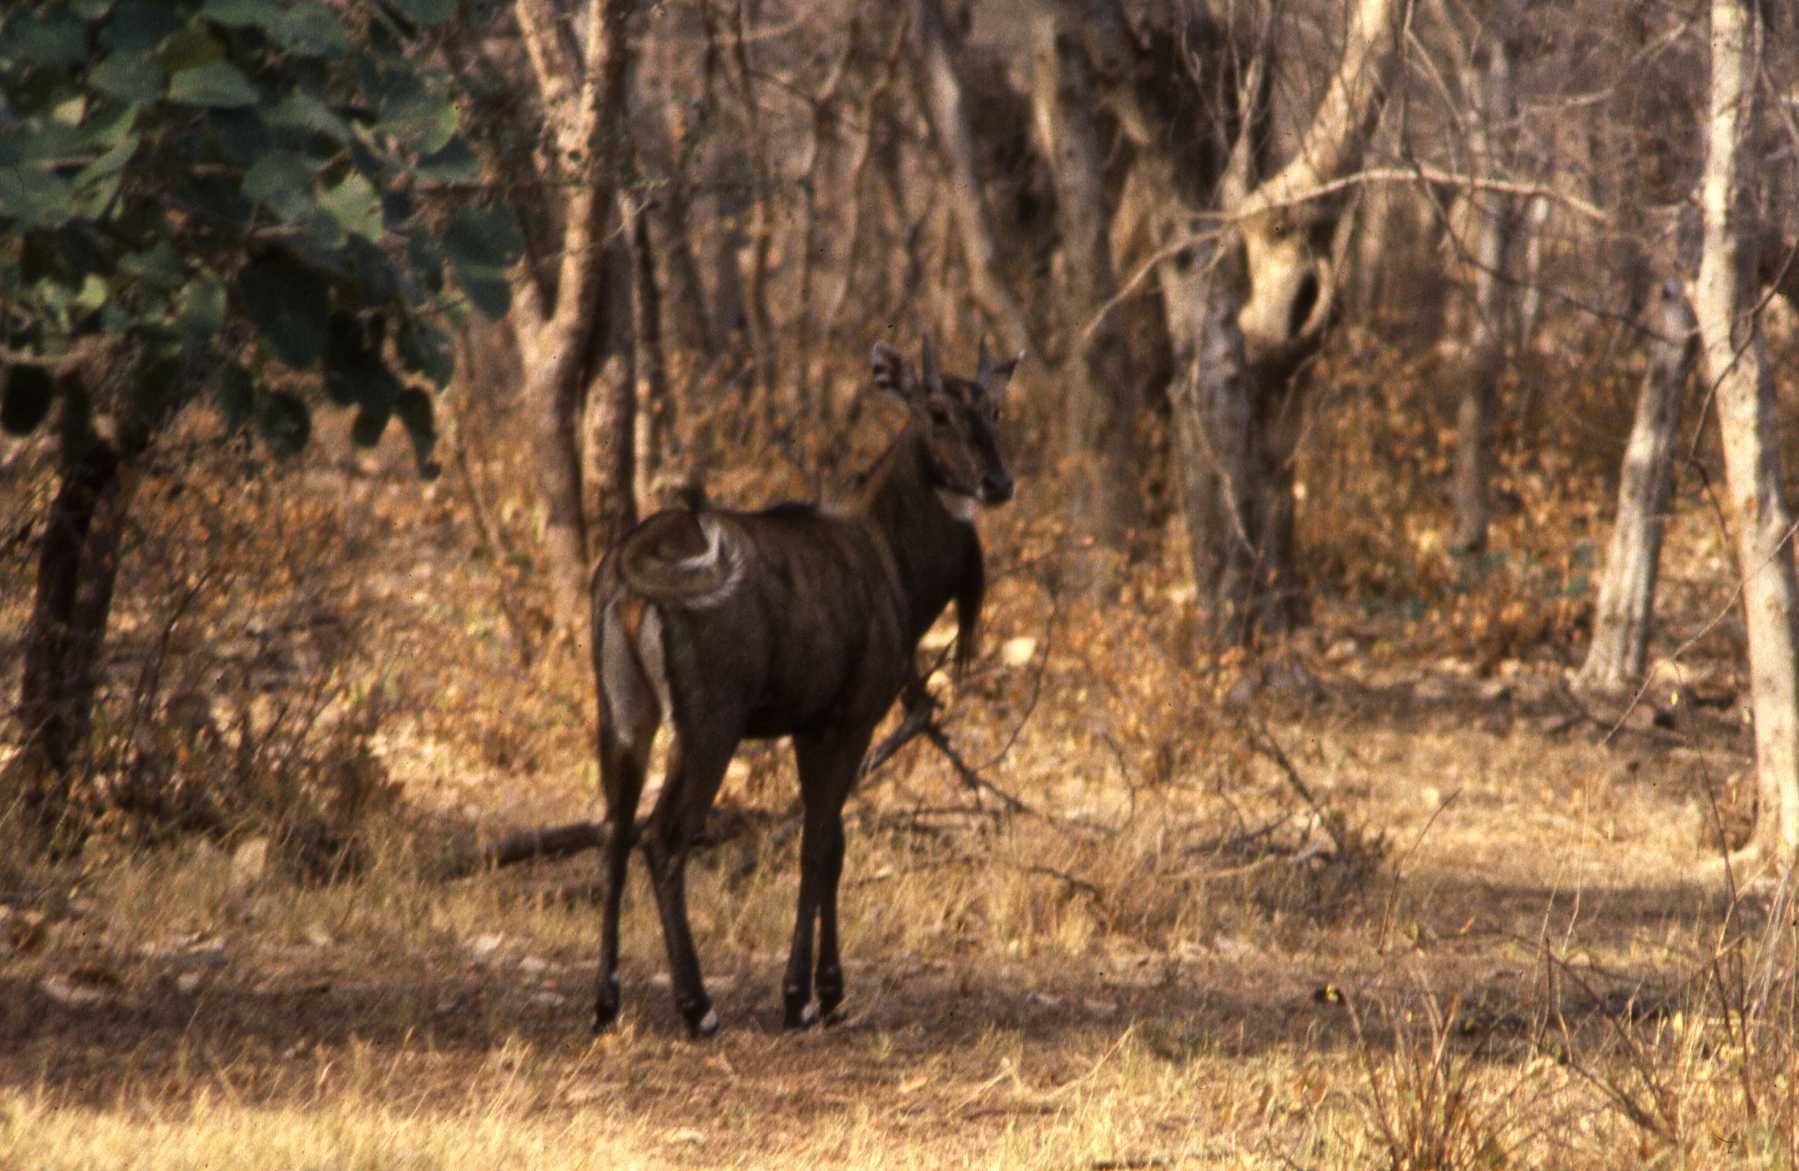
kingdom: Animalia
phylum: Chordata
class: Mammalia
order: Artiodactyla
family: Bovidae
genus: Boselaphus
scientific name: Boselaphus tragocamelus
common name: Nilgai
